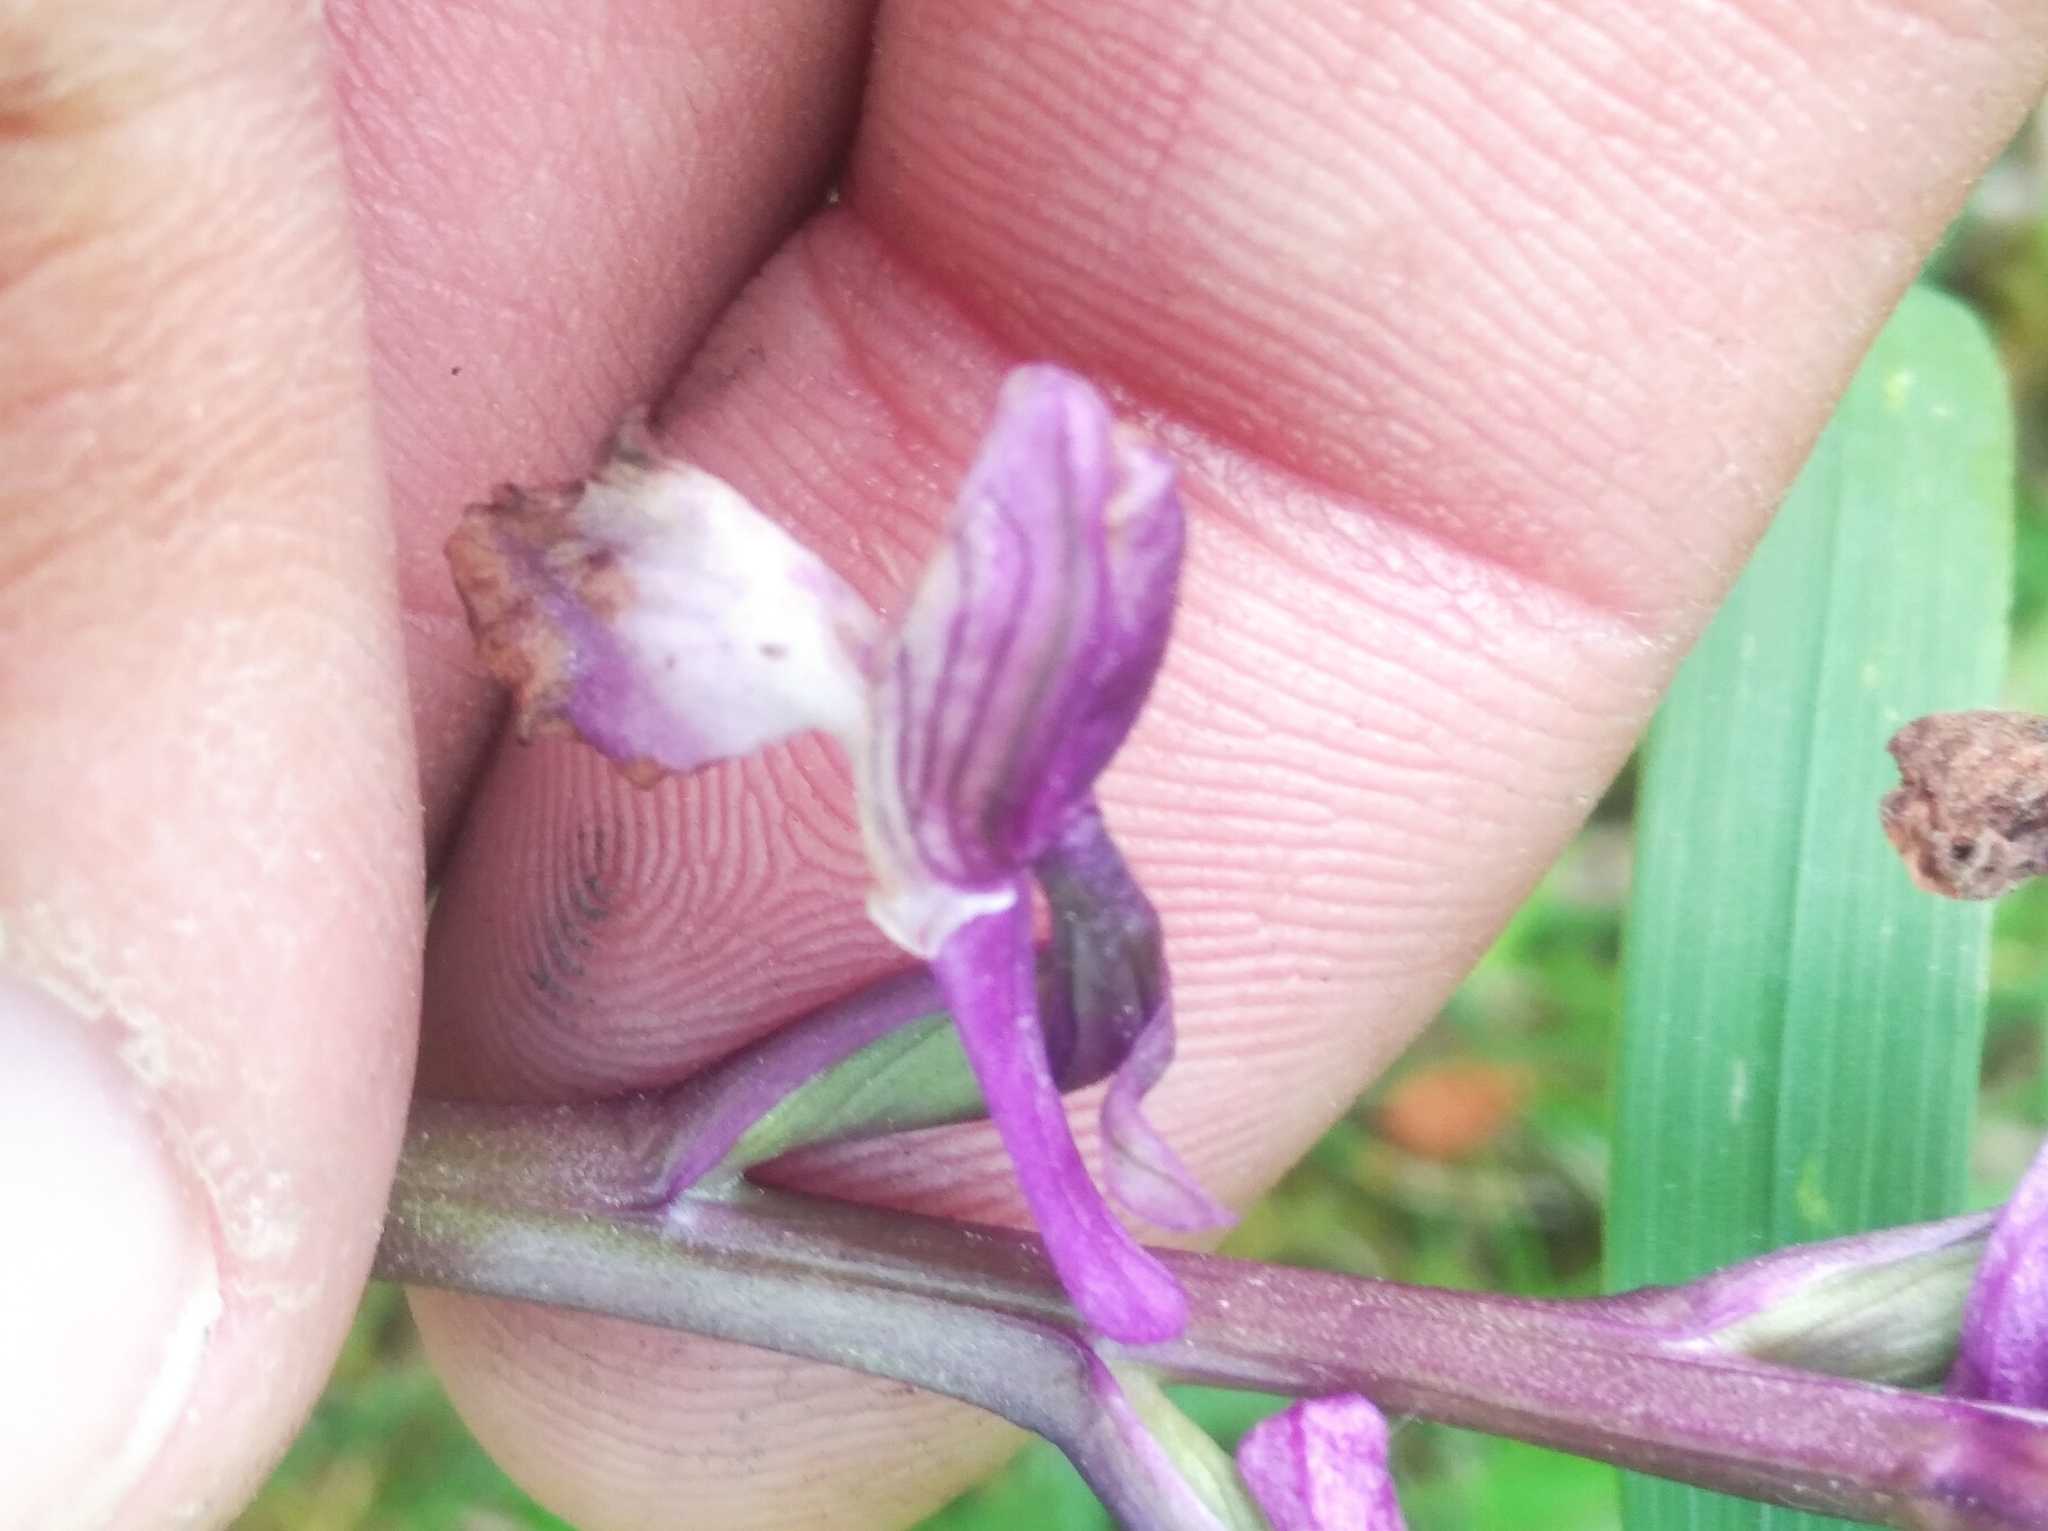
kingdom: Plantae
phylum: Tracheophyta
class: Liliopsida
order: Asparagales
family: Orchidaceae
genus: Anacamptis
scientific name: Anacamptis morio
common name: Green-winged orchid
